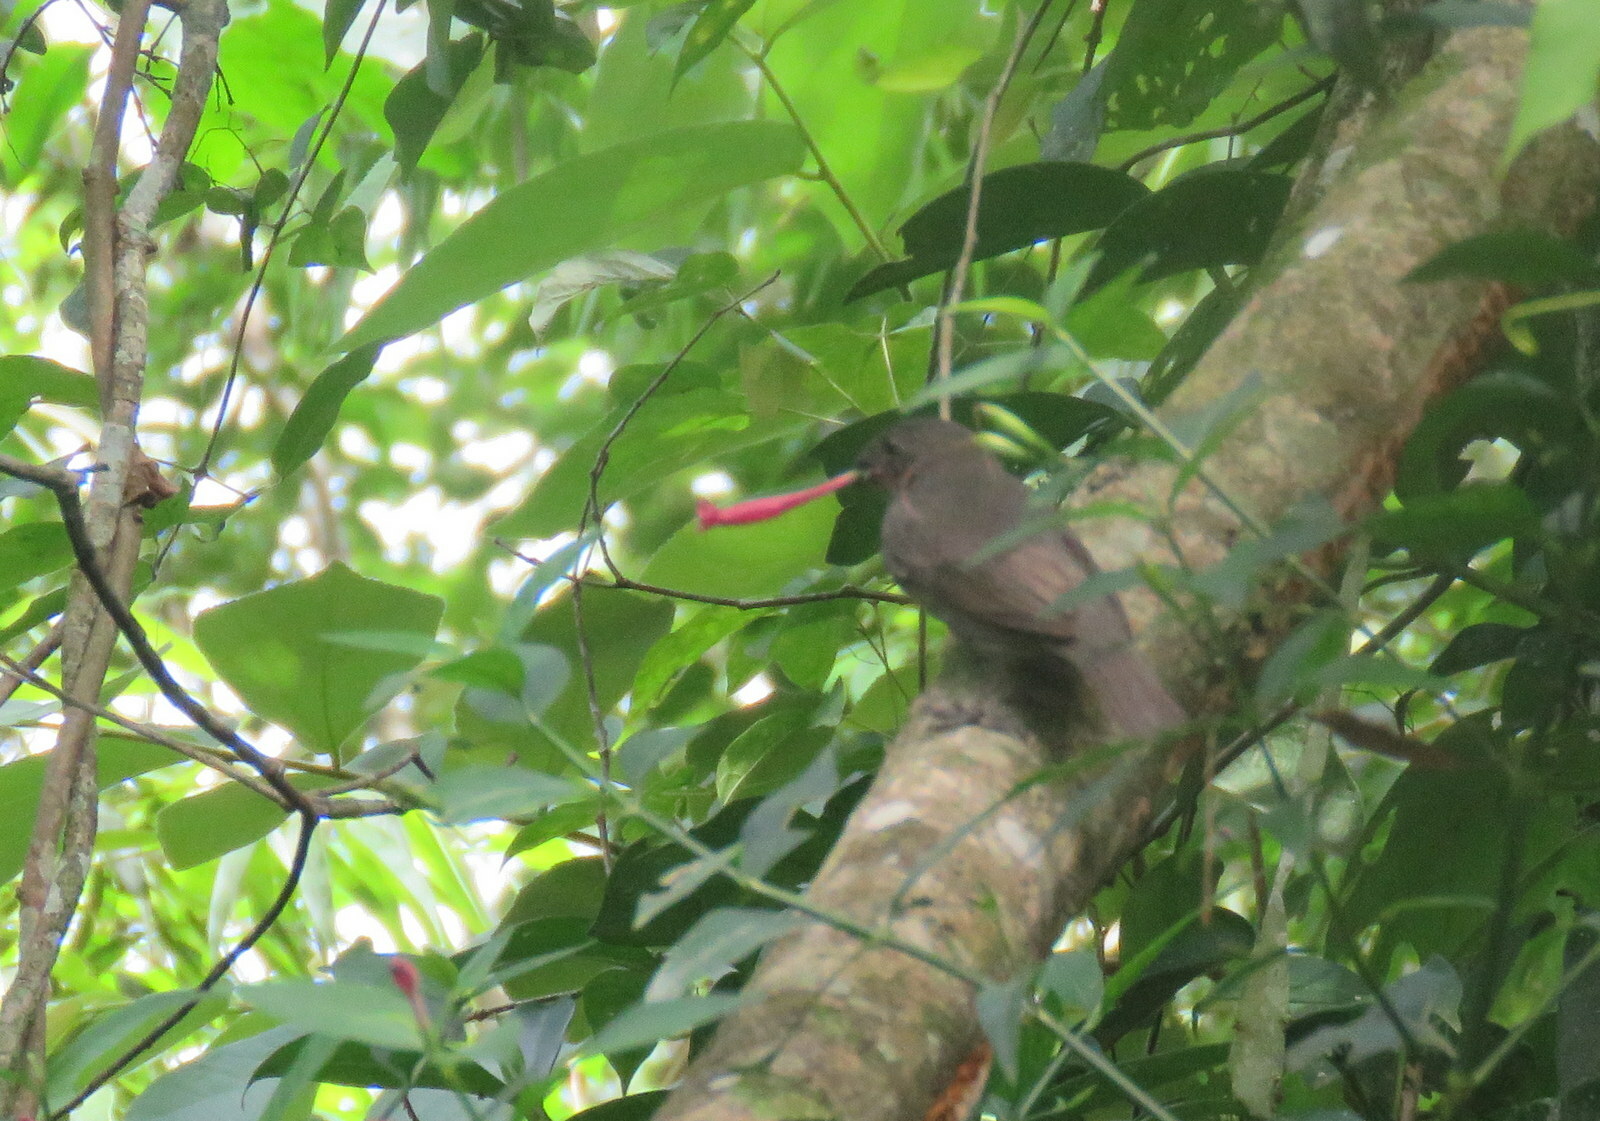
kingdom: Animalia
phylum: Chordata
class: Aves
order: Passeriformes
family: Thraupidae
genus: Asemospiza
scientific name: Asemospiza fuliginosa
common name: Sooty grassquit
